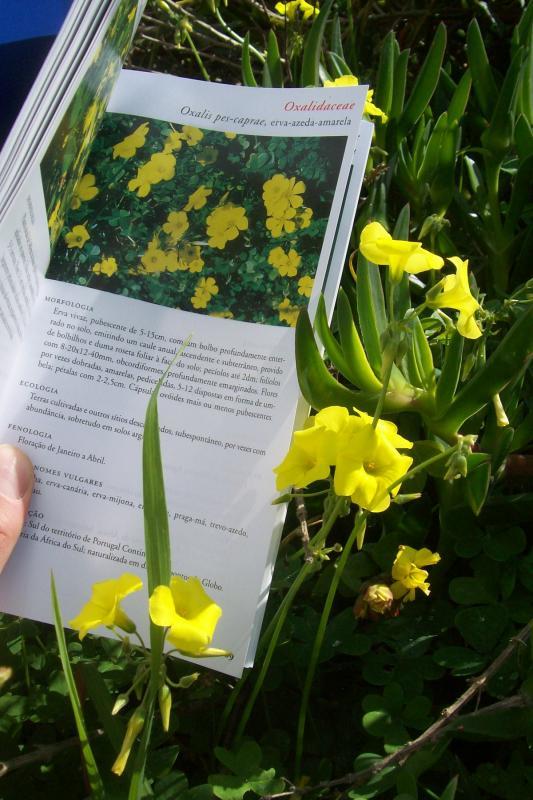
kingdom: Plantae
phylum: Tracheophyta
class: Magnoliopsida
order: Oxalidales
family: Oxalidaceae
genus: Oxalis
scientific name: Oxalis pes-caprae
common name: Bermuda-buttercup
